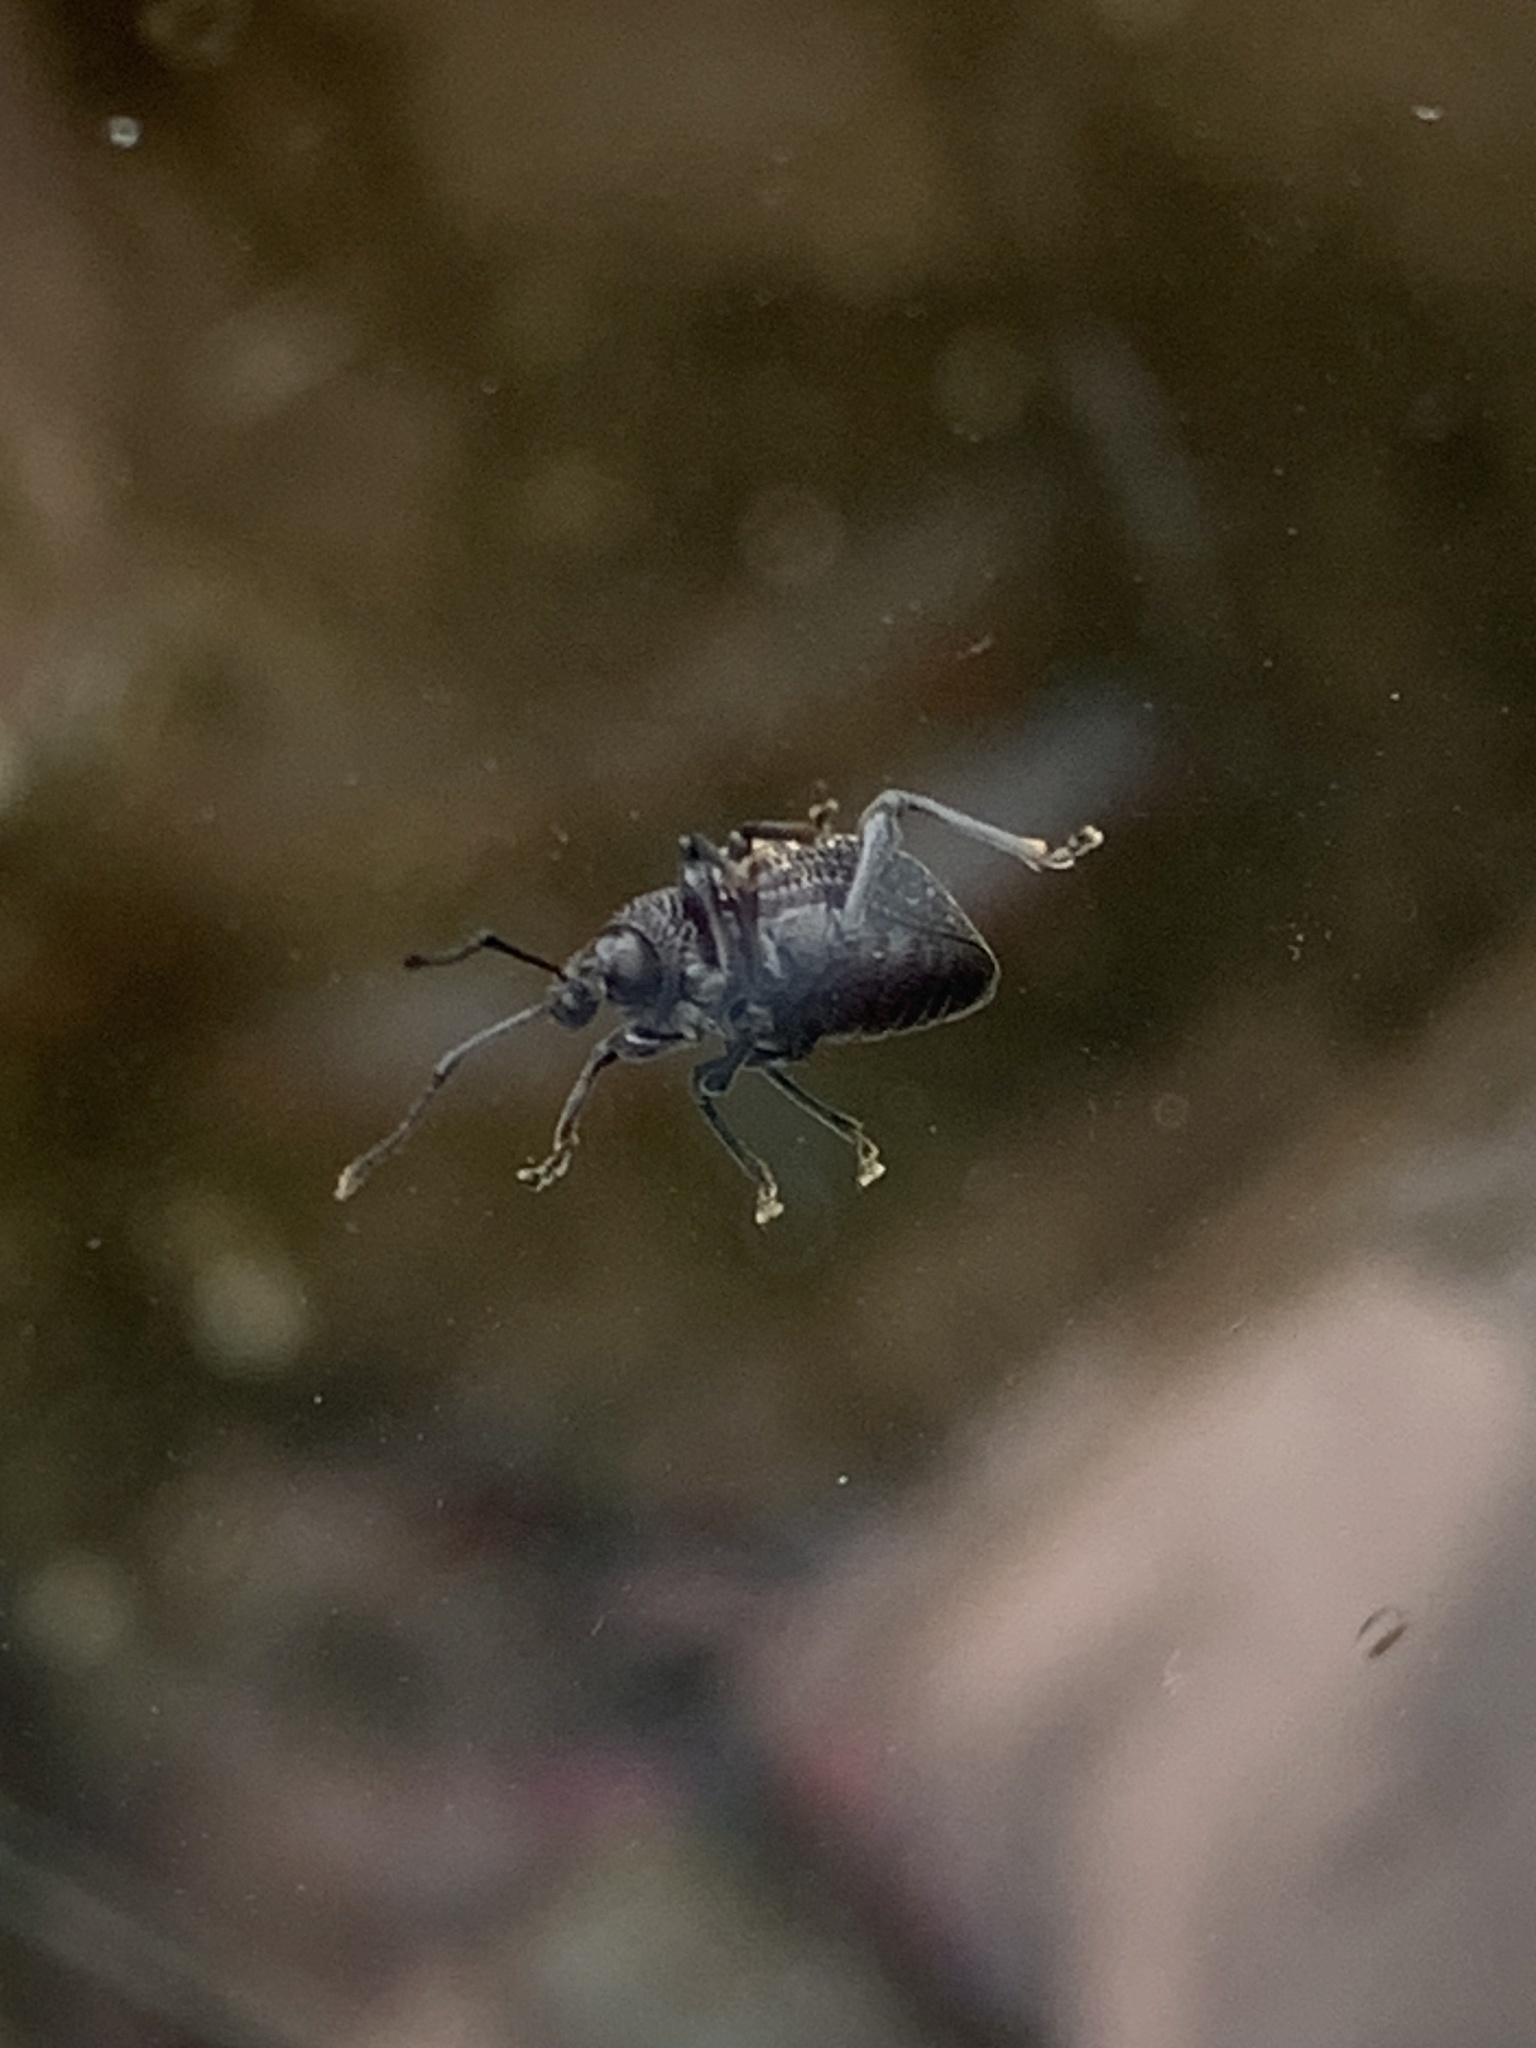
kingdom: Animalia
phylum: Arthropoda
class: Insecta
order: Coleoptera
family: Curculionidae
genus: Otiorhynchus
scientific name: Otiorhynchus sulcatus
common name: Black vine weevil
